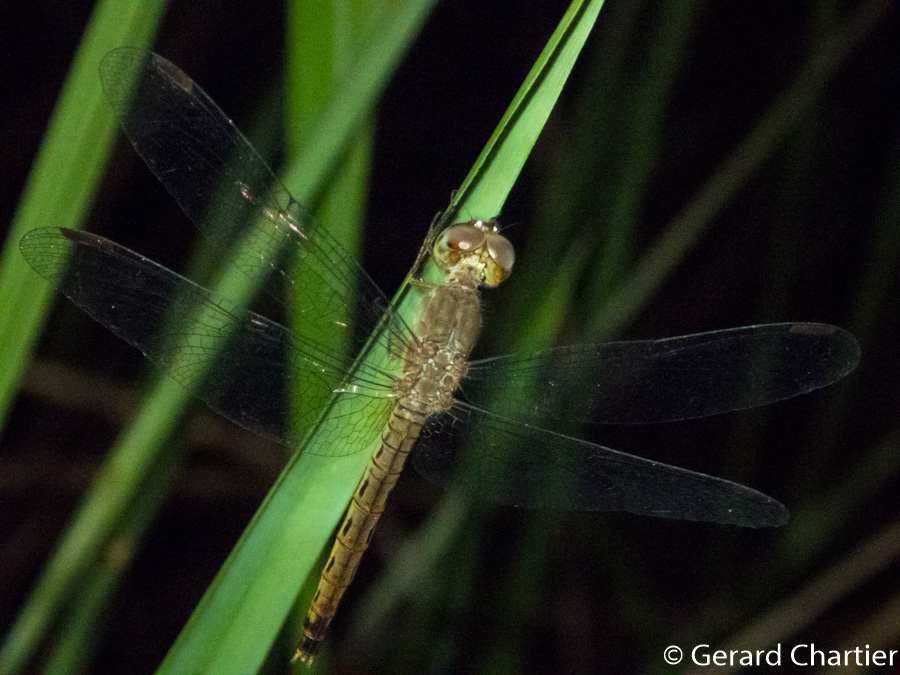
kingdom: Animalia
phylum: Arthropoda
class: Insecta
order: Odonata
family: Libellulidae
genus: Neurothemis
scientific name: Neurothemis fluctuans
